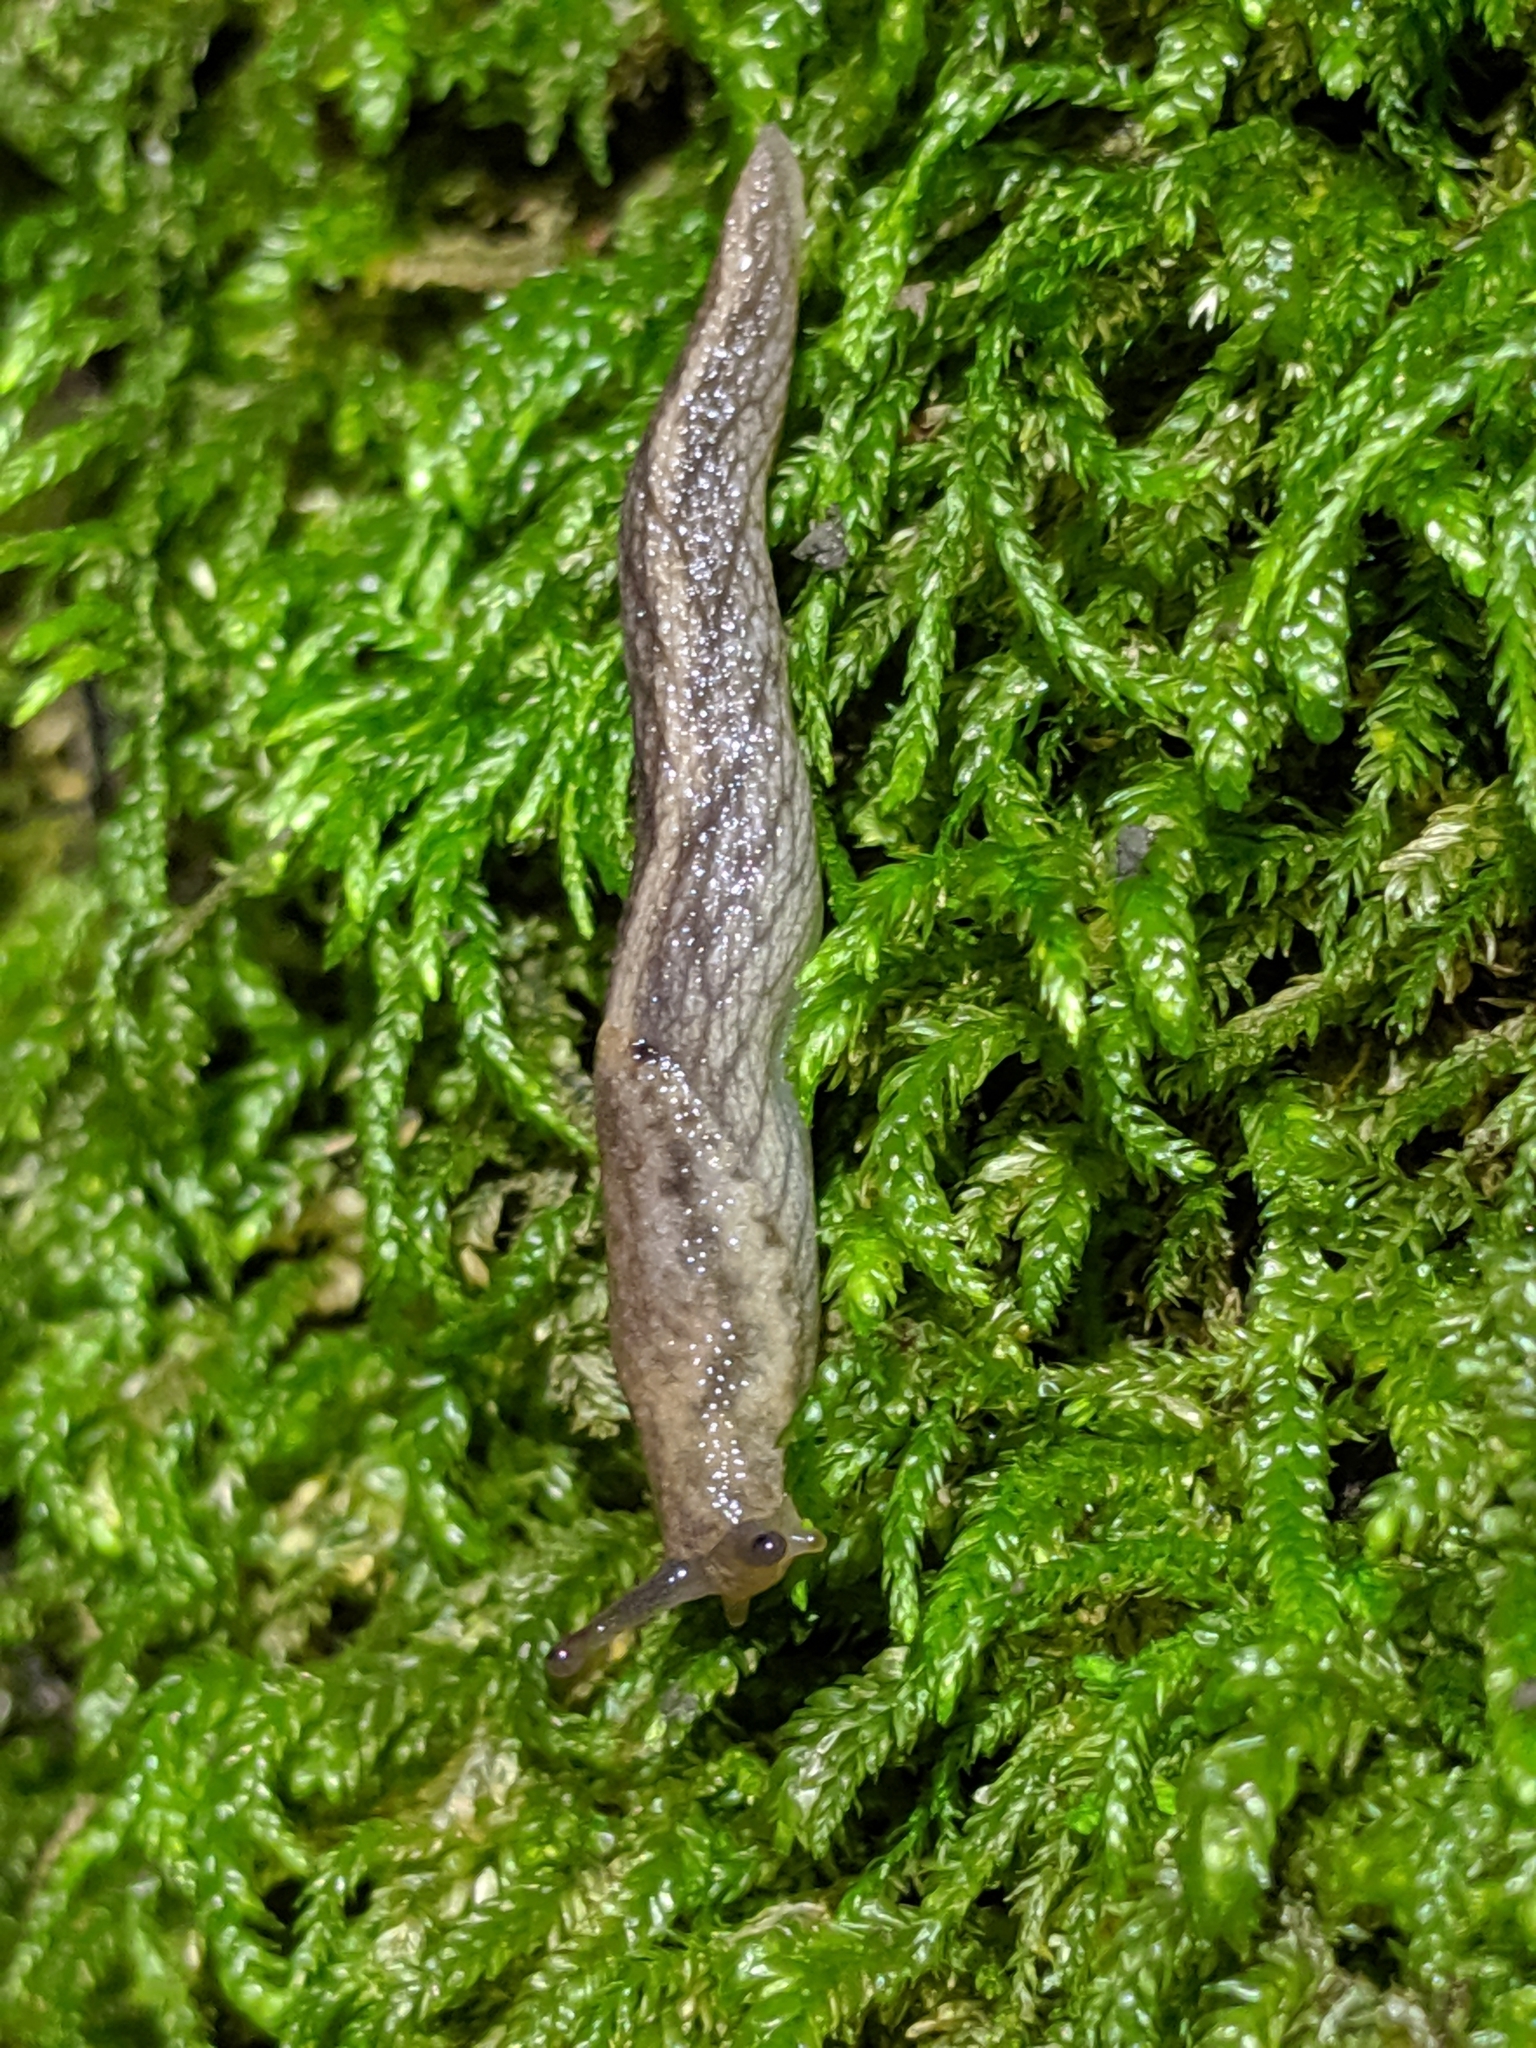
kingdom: Animalia
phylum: Mollusca
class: Gastropoda
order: Stylommatophora
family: Ariolimacidae
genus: Prophysaon
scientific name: Prophysaon andersonii
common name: Reticulate taildropper
